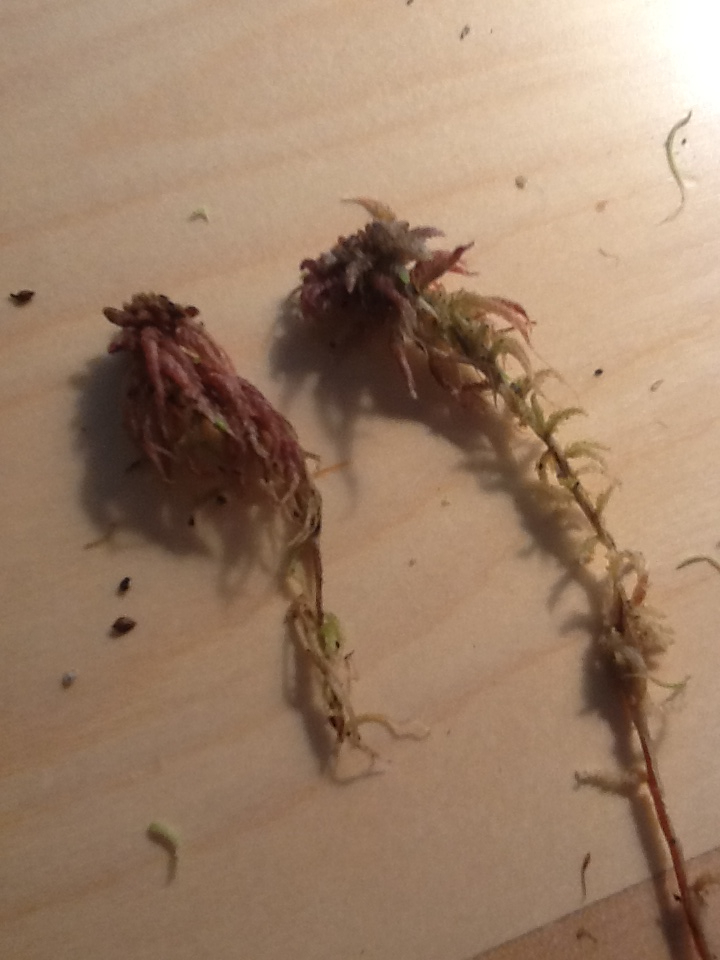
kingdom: Plantae
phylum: Bryophyta
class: Sphagnopsida
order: Sphagnales
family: Sphagnaceae
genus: Sphagnum
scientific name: Sphagnum magellanicum
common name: Magellan's peat moss
